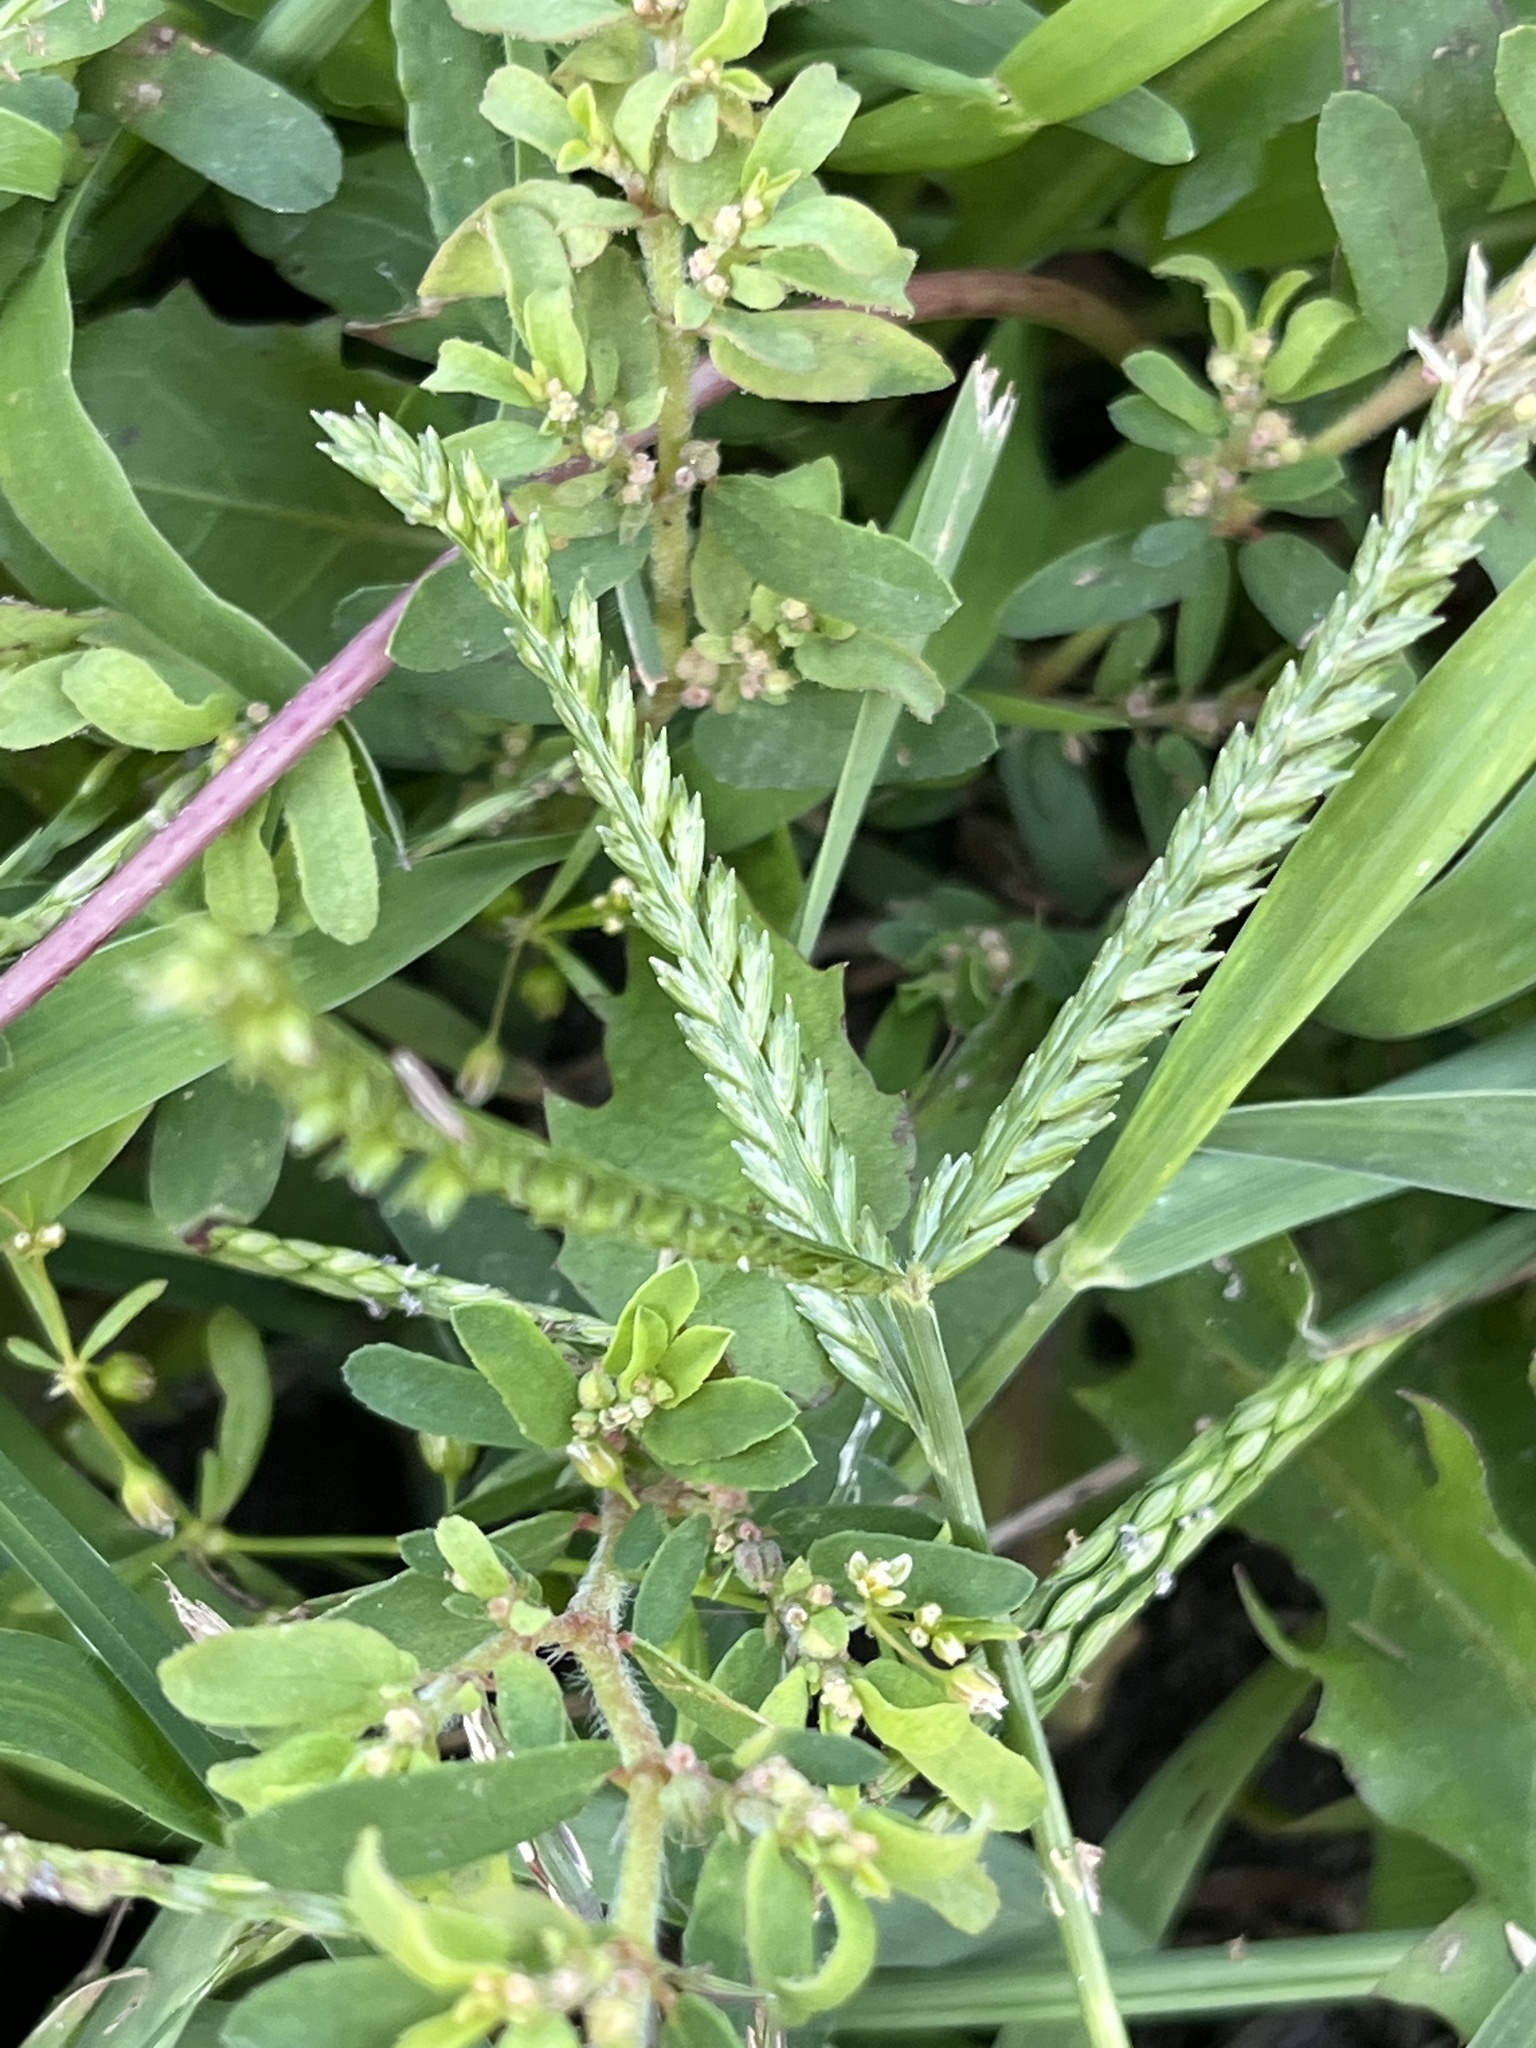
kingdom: Plantae
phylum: Tracheophyta
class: Liliopsida
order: Poales
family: Poaceae
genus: Eleusine
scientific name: Eleusine indica
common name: Yard-grass
